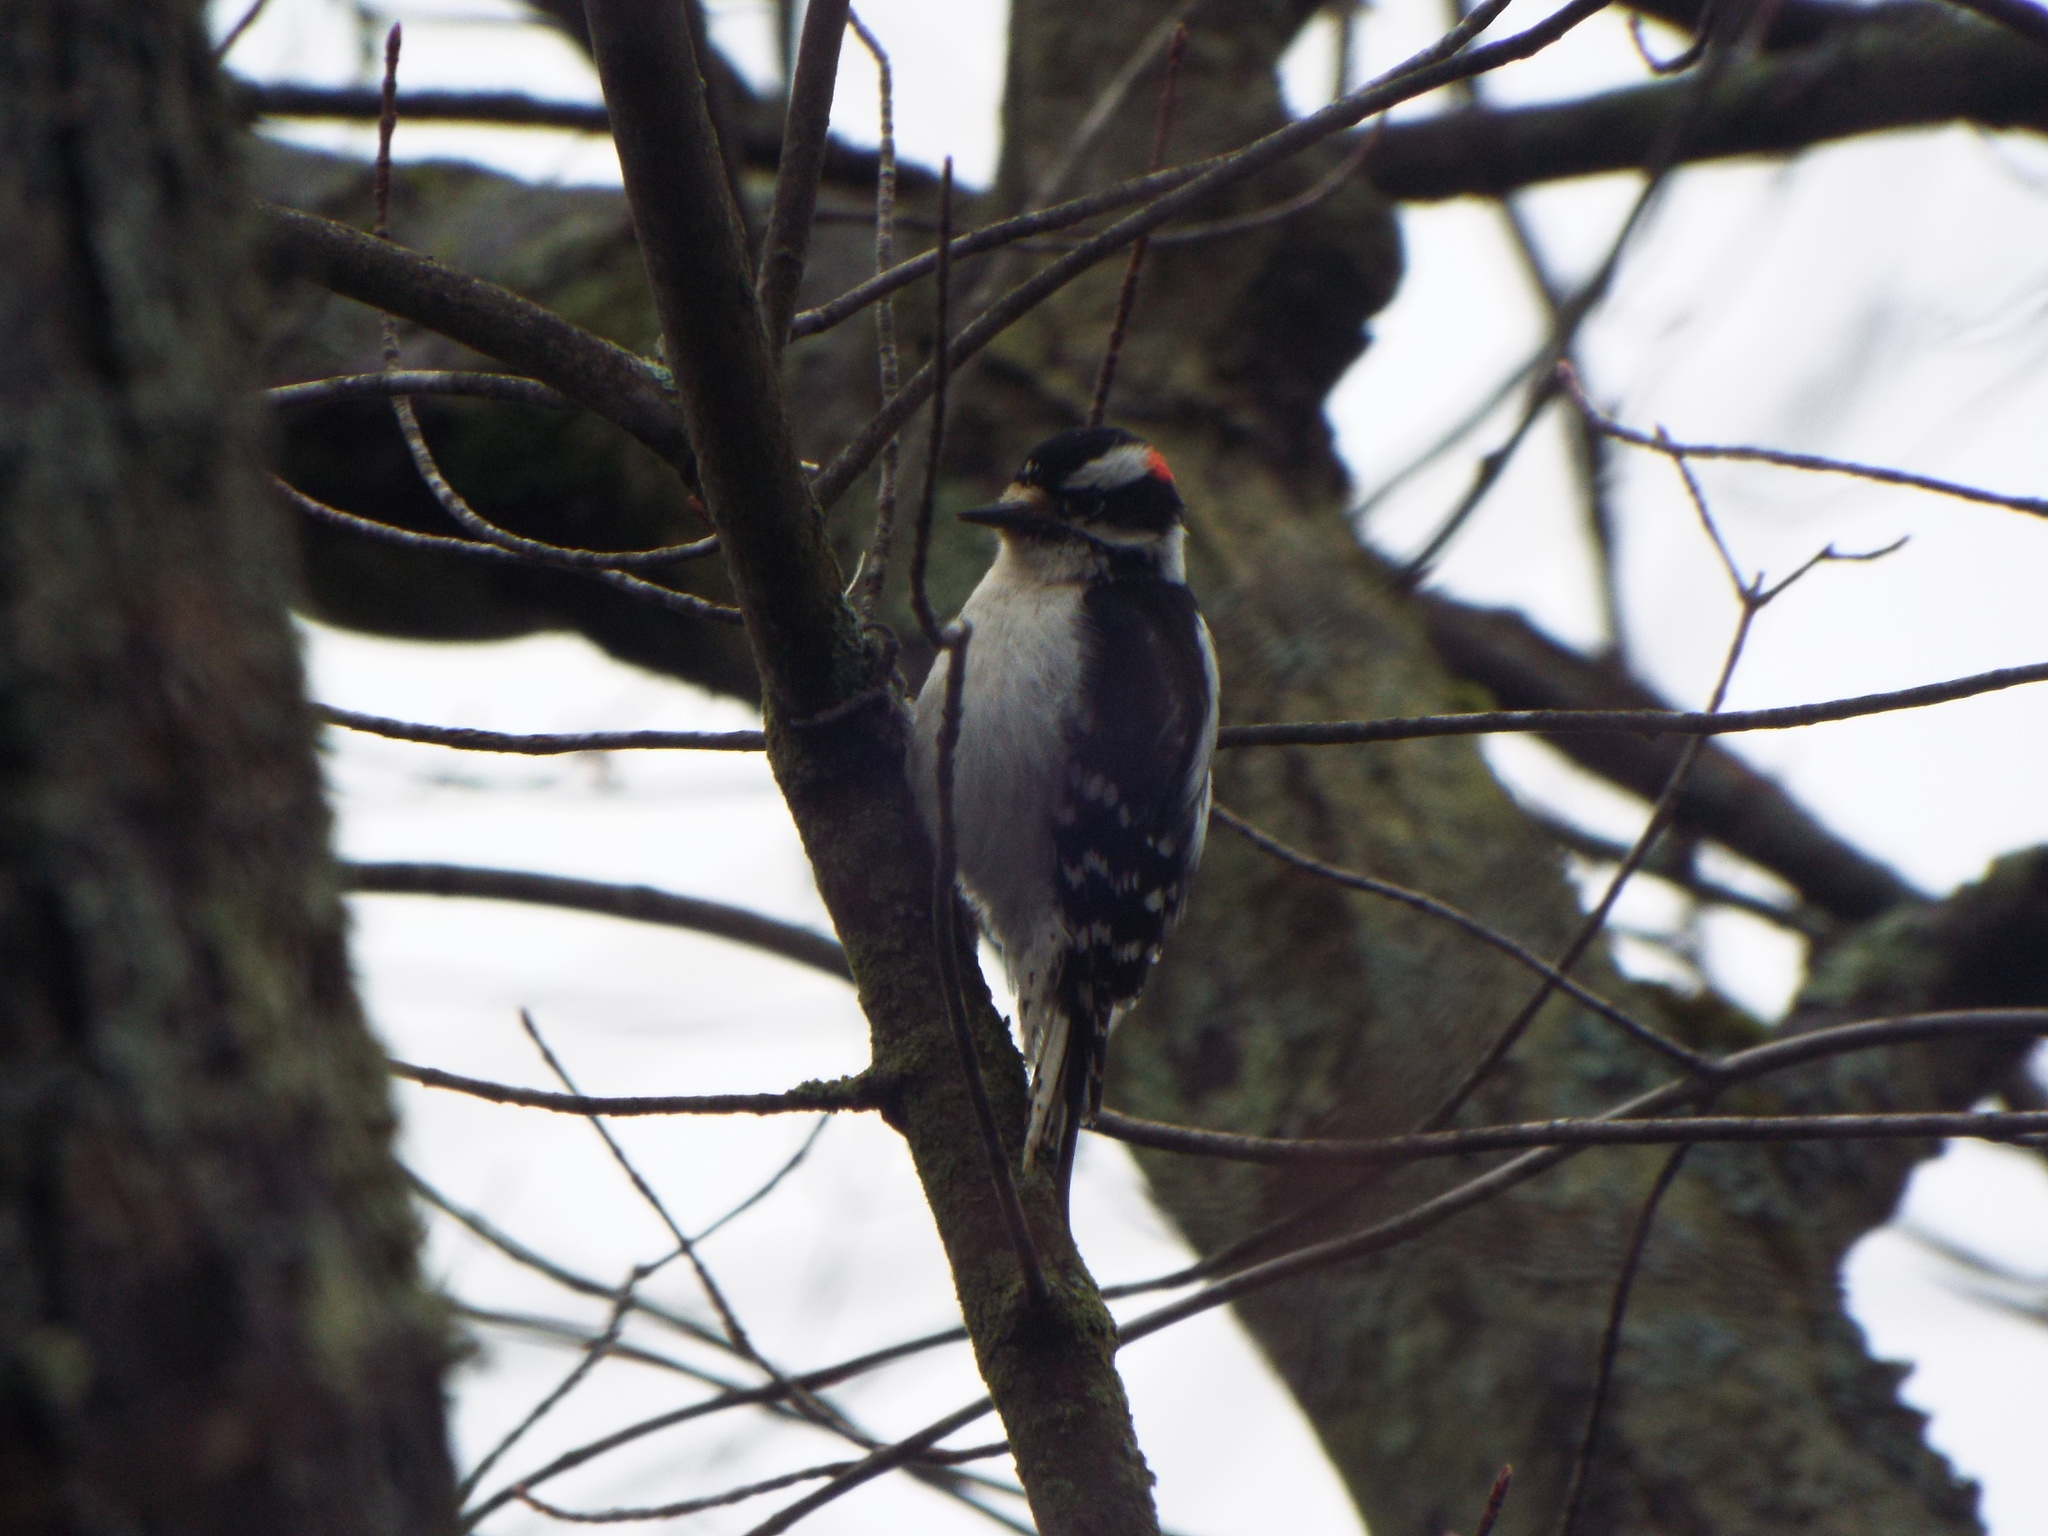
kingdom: Animalia
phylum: Chordata
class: Aves
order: Piciformes
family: Picidae
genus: Dryobates
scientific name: Dryobates pubescens
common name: Downy woodpecker
